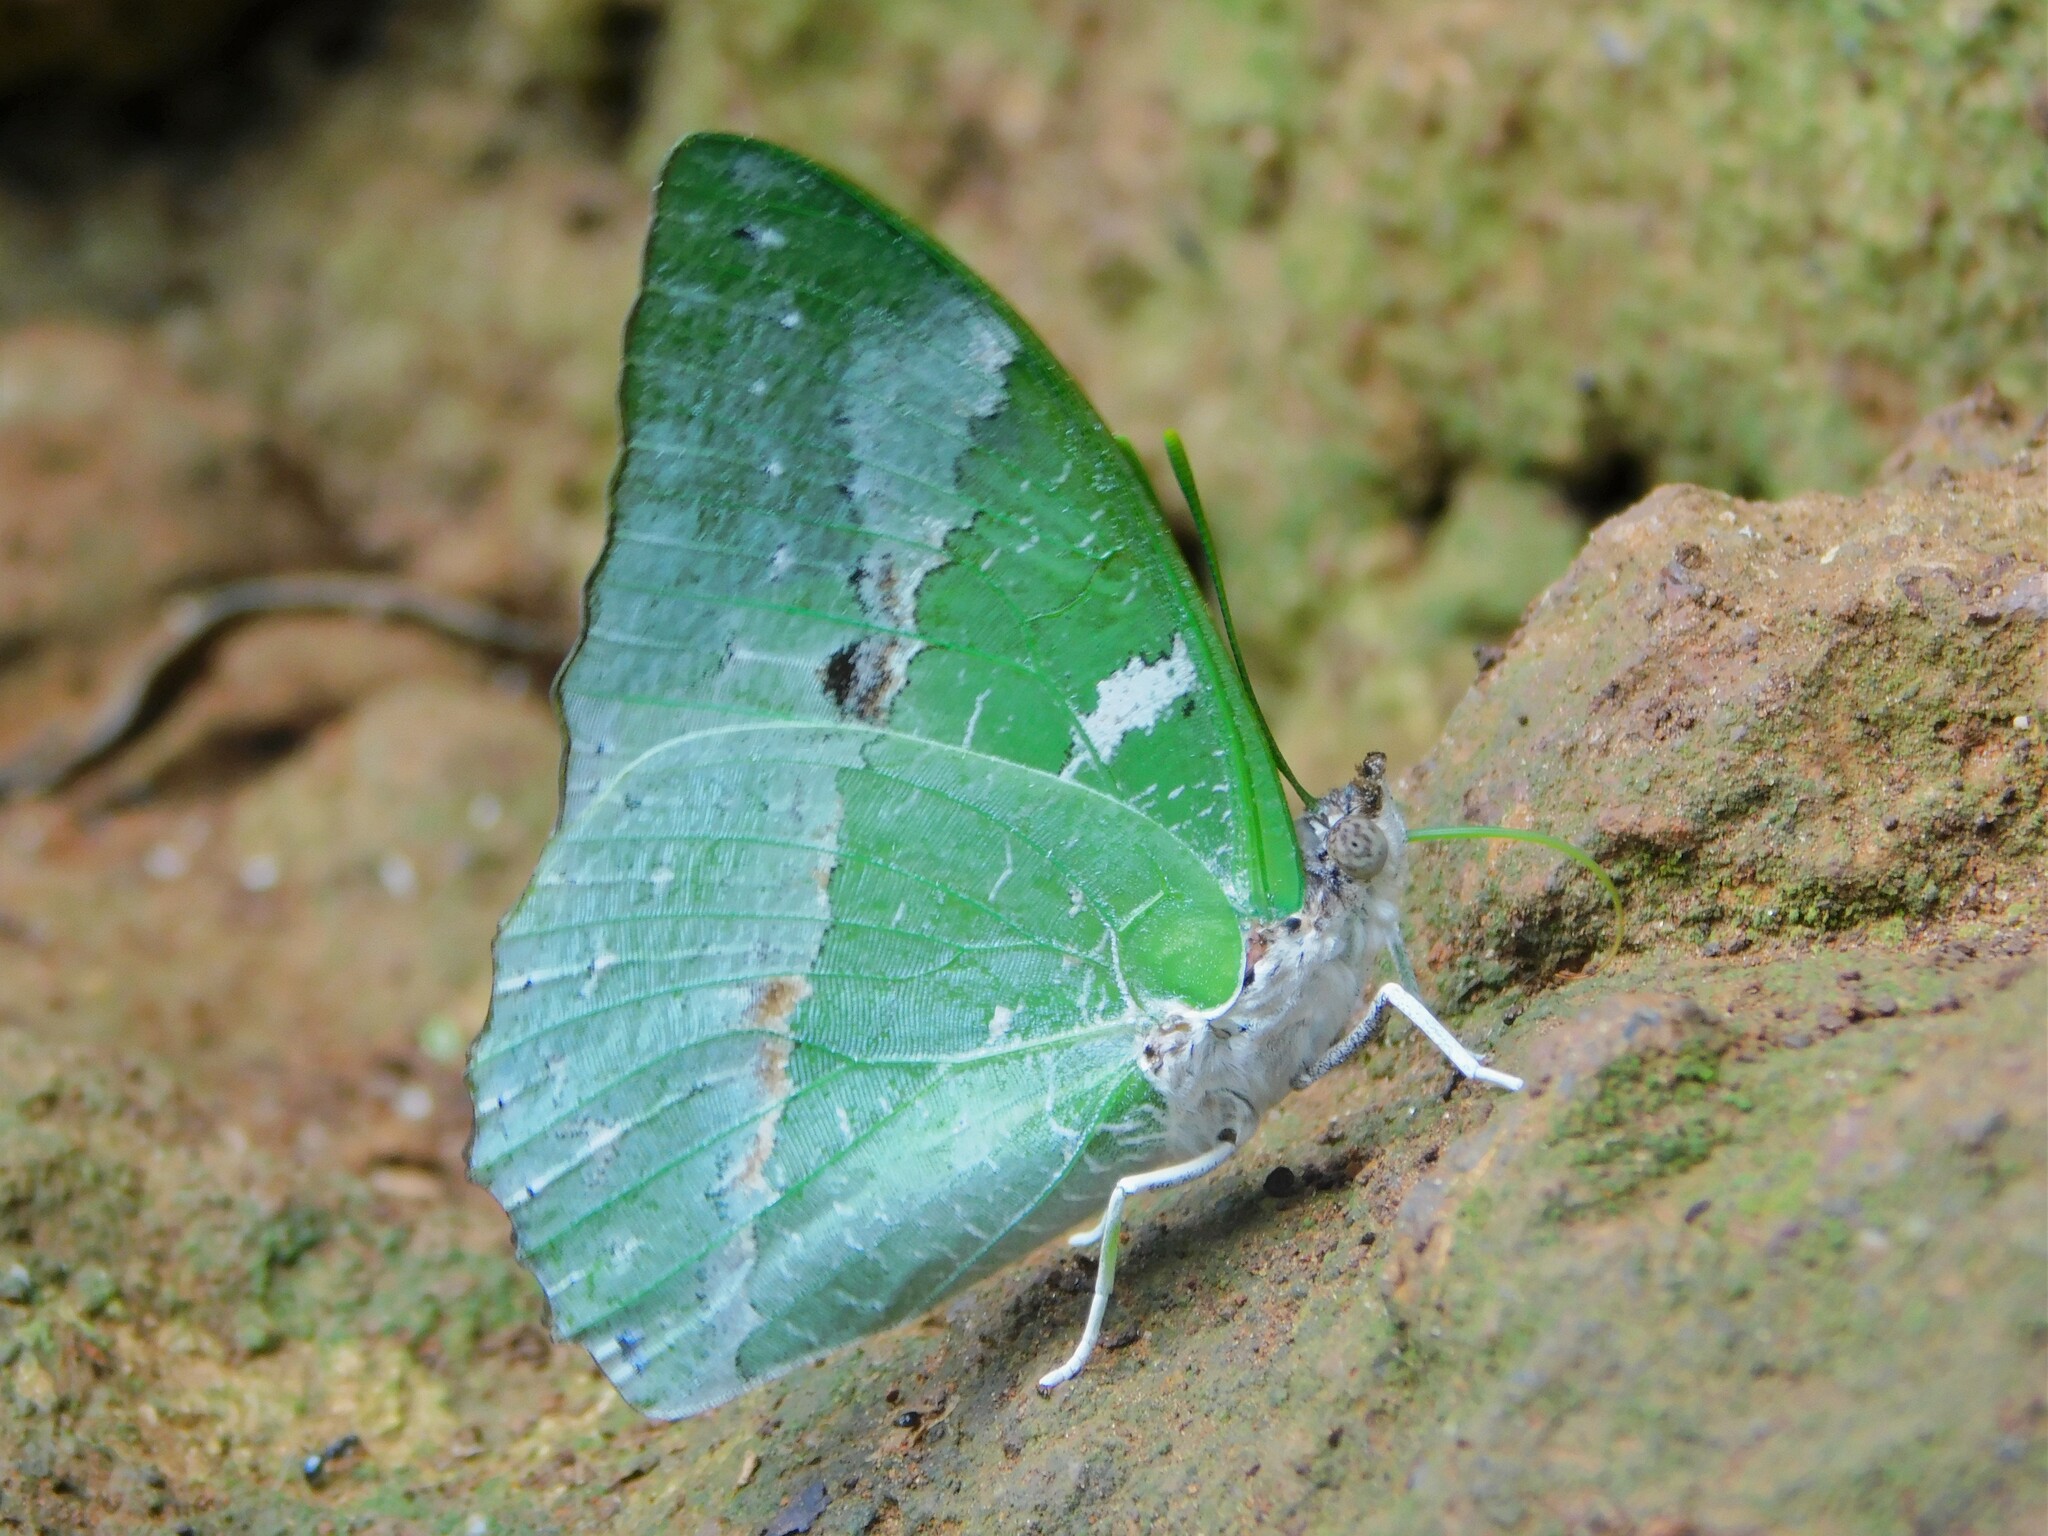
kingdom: Animalia
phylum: Arthropoda
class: Insecta
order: Lepidoptera
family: Nymphalidae
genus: Charaxes
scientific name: Charaxes
